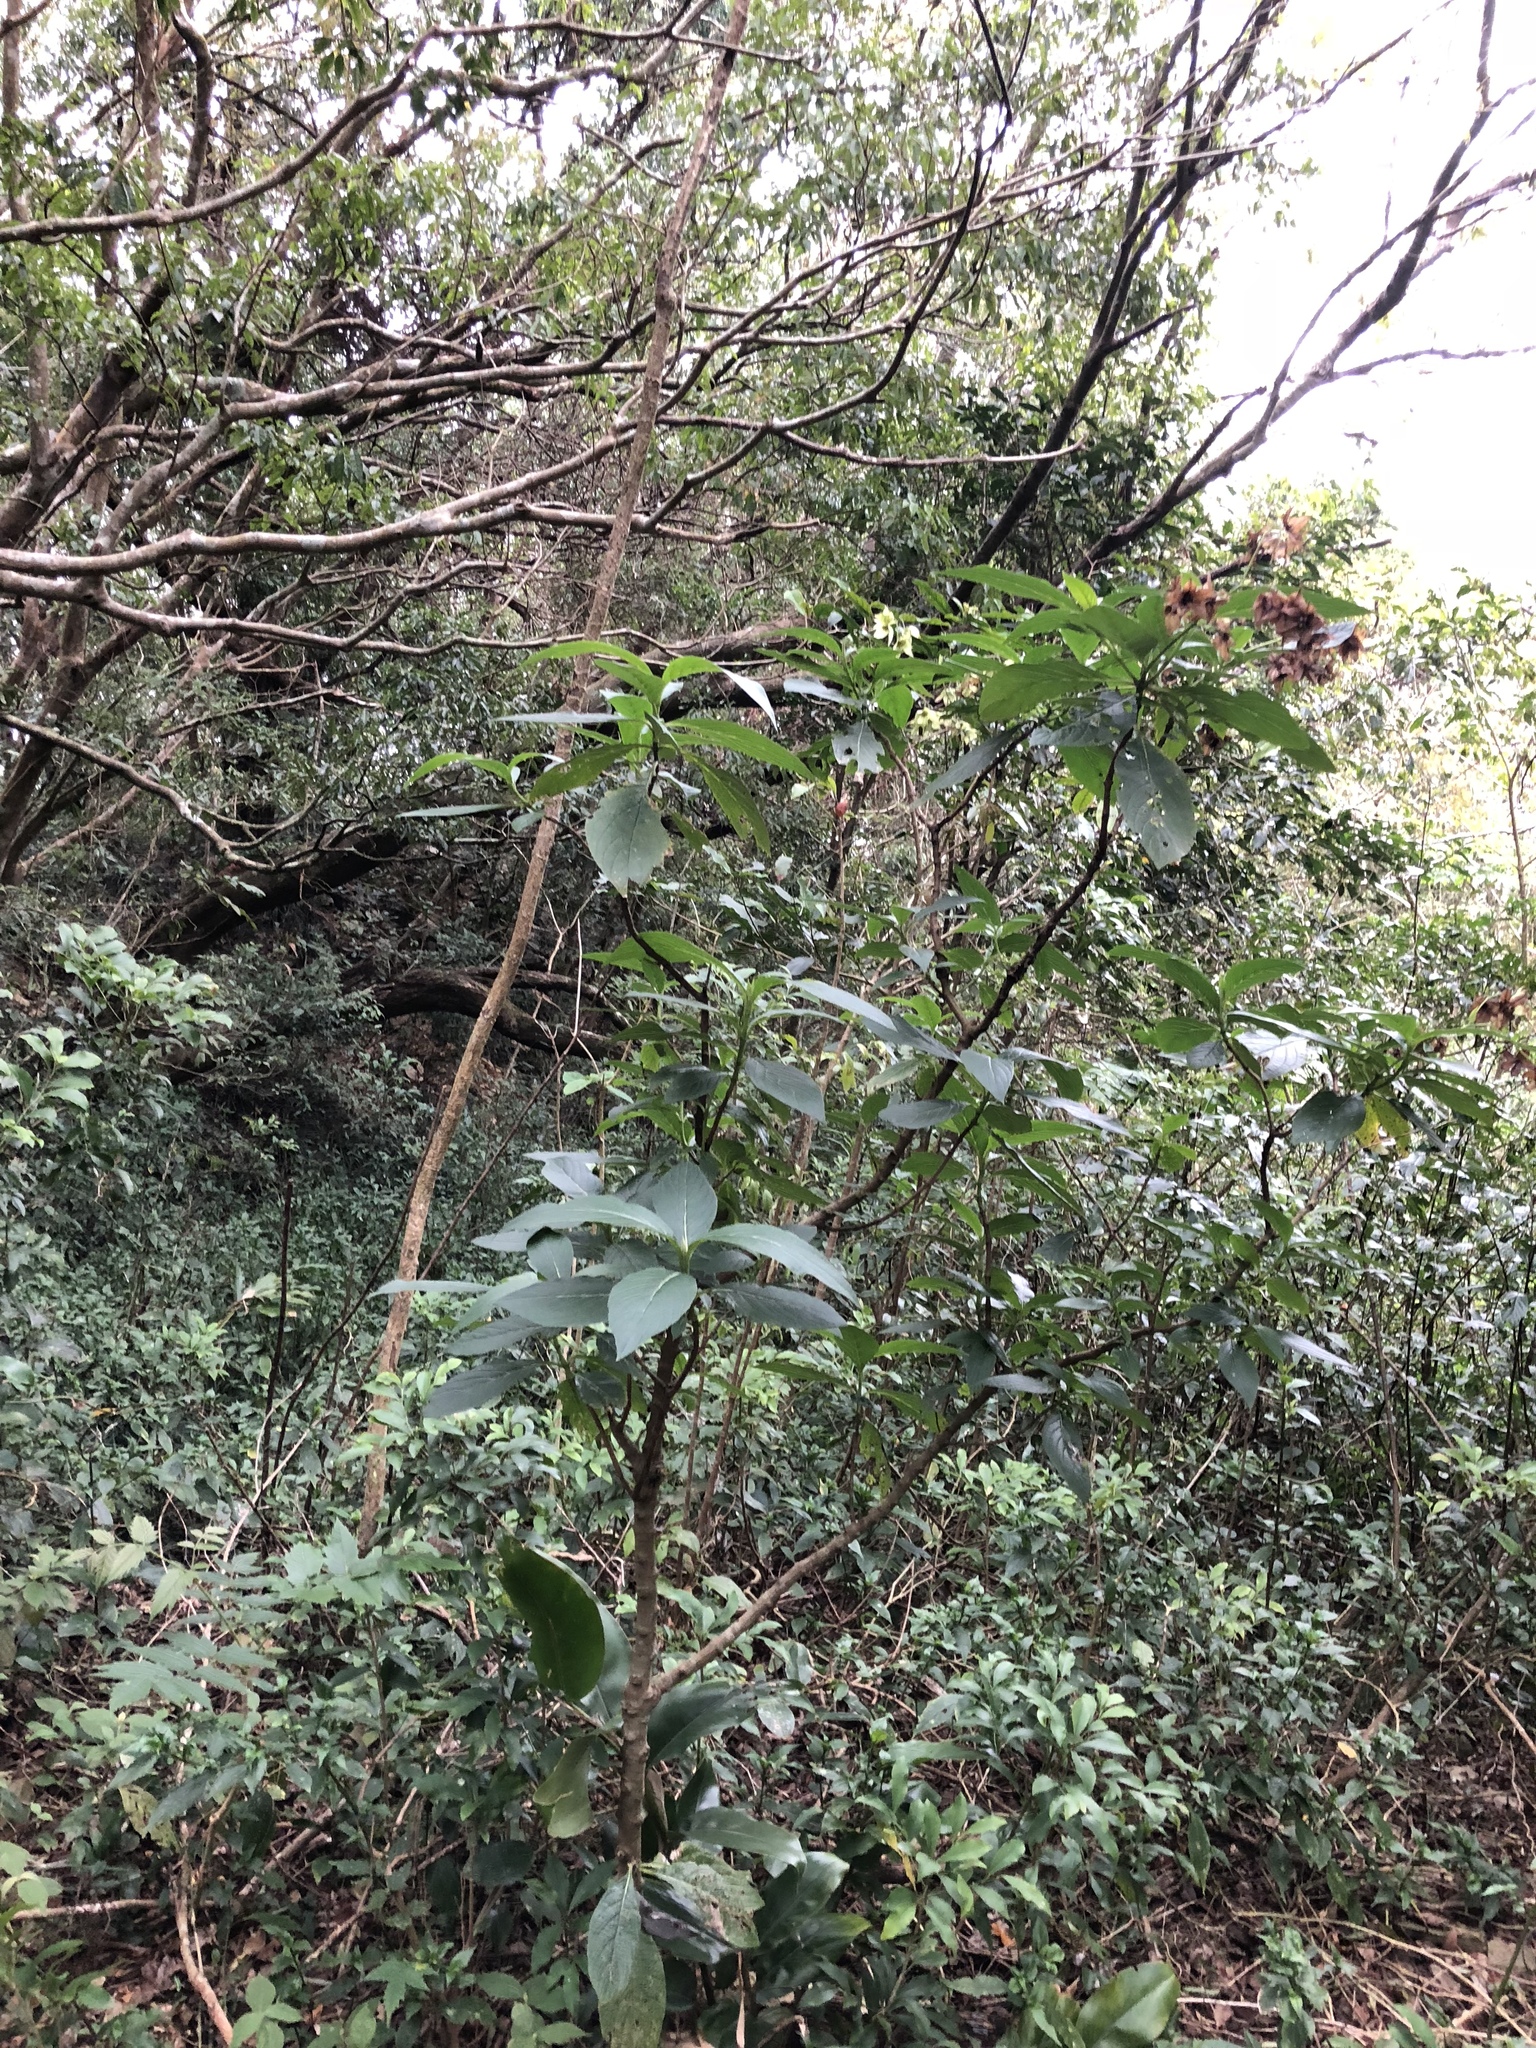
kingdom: Plantae
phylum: Tracheophyta
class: Magnoliopsida
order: Boraginales
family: Boraginaceae
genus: Trichodesma
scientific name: Trichodesma calycosum
